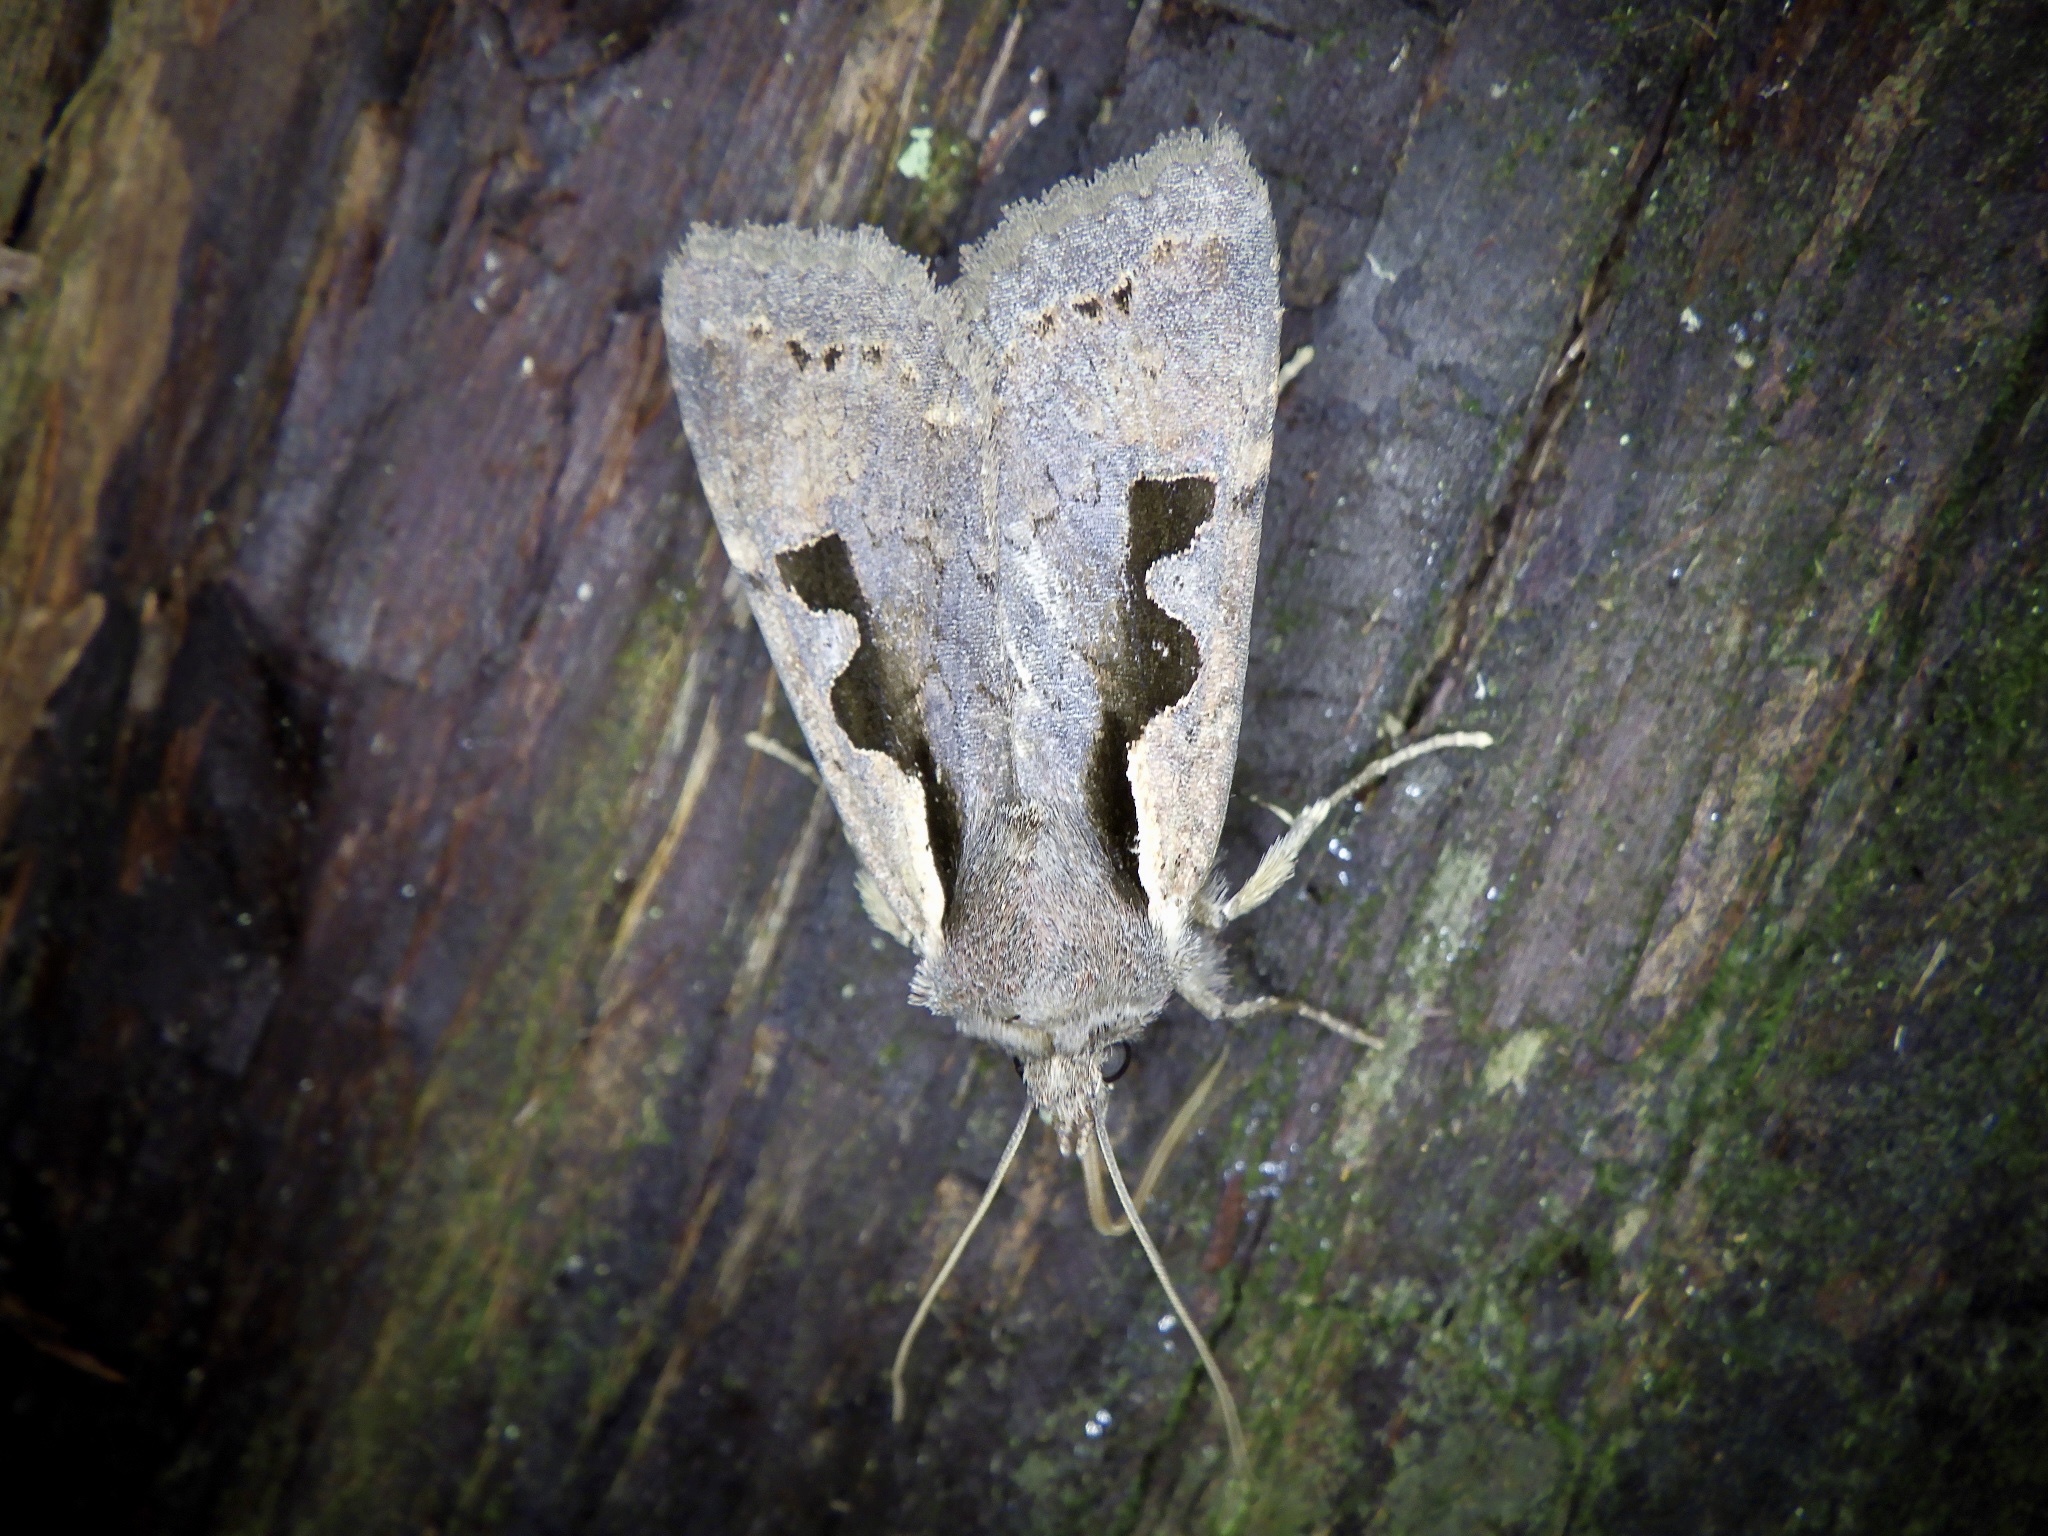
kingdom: Animalia
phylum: Arthropoda
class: Insecta
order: Lepidoptera
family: Noctuidae
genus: Sugitania
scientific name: Sugitania lepida
